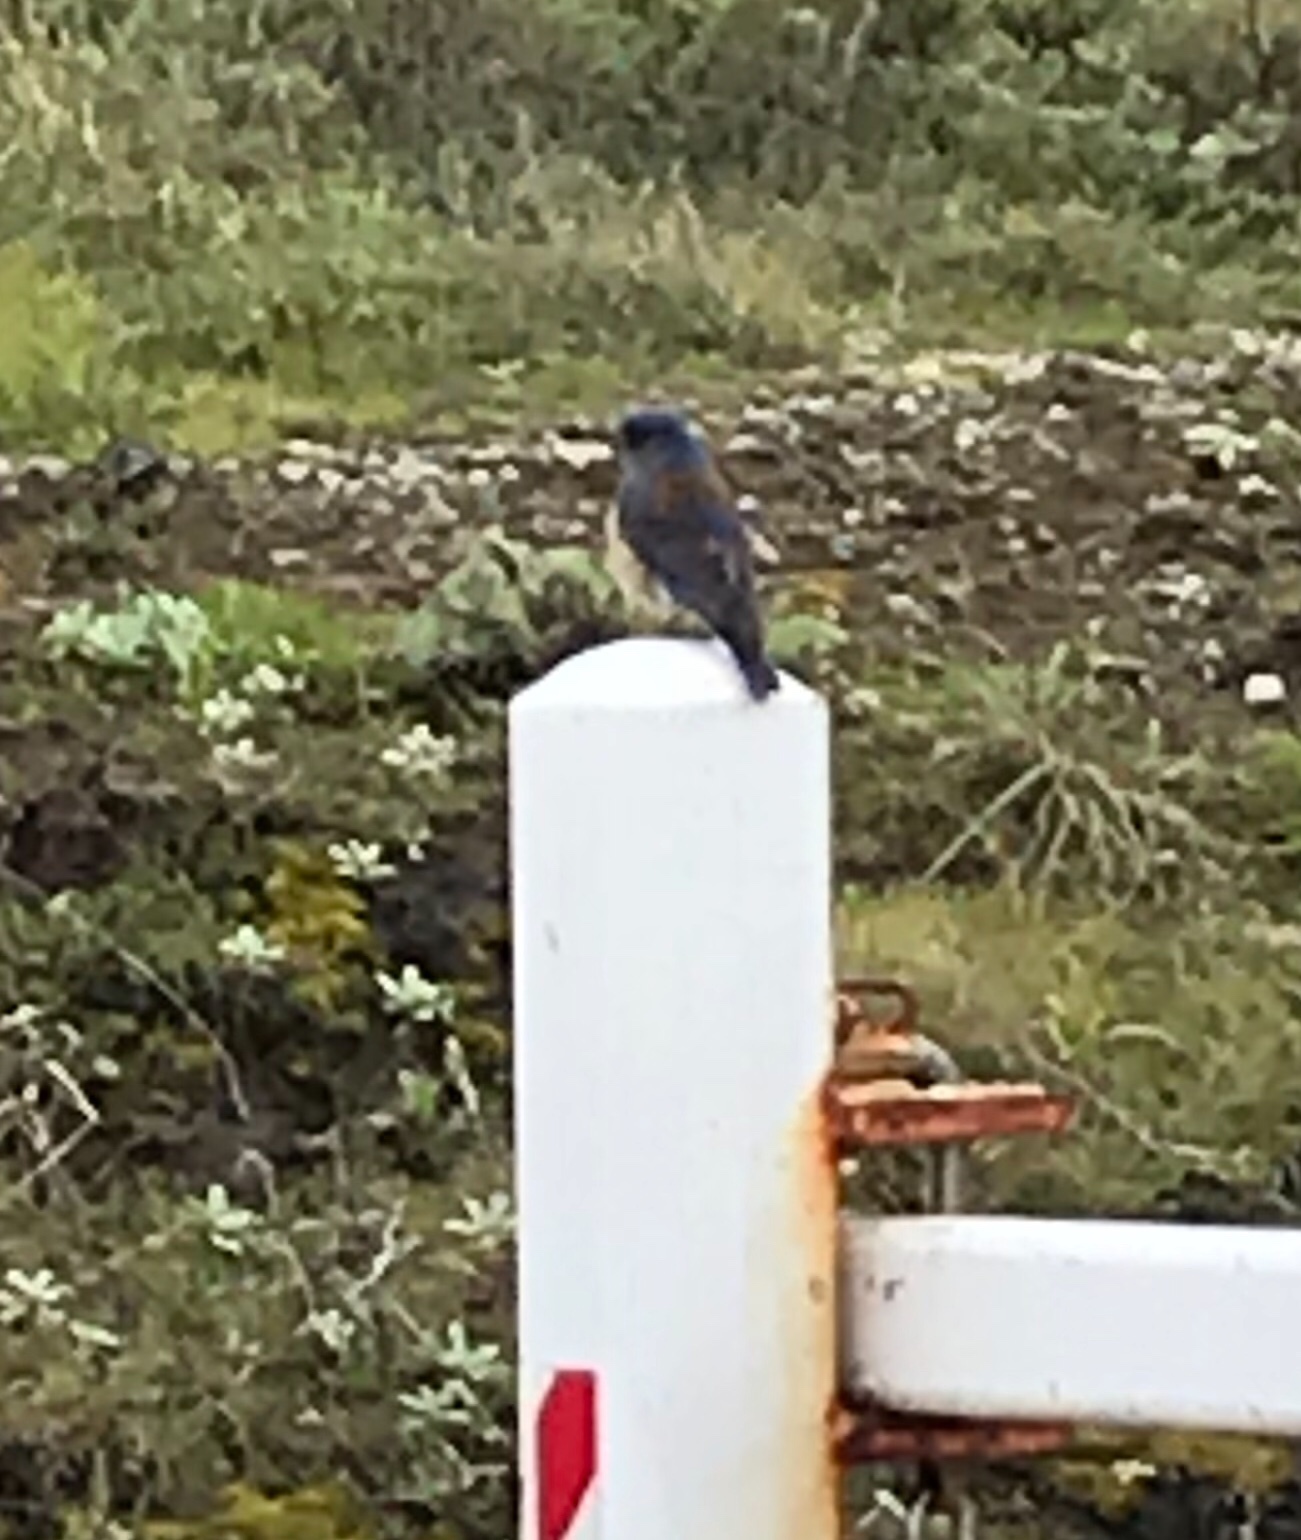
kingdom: Animalia
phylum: Chordata
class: Aves
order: Passeriformes
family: Turdidae
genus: Sialia
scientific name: Sialia mexicana
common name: Western bluebird
